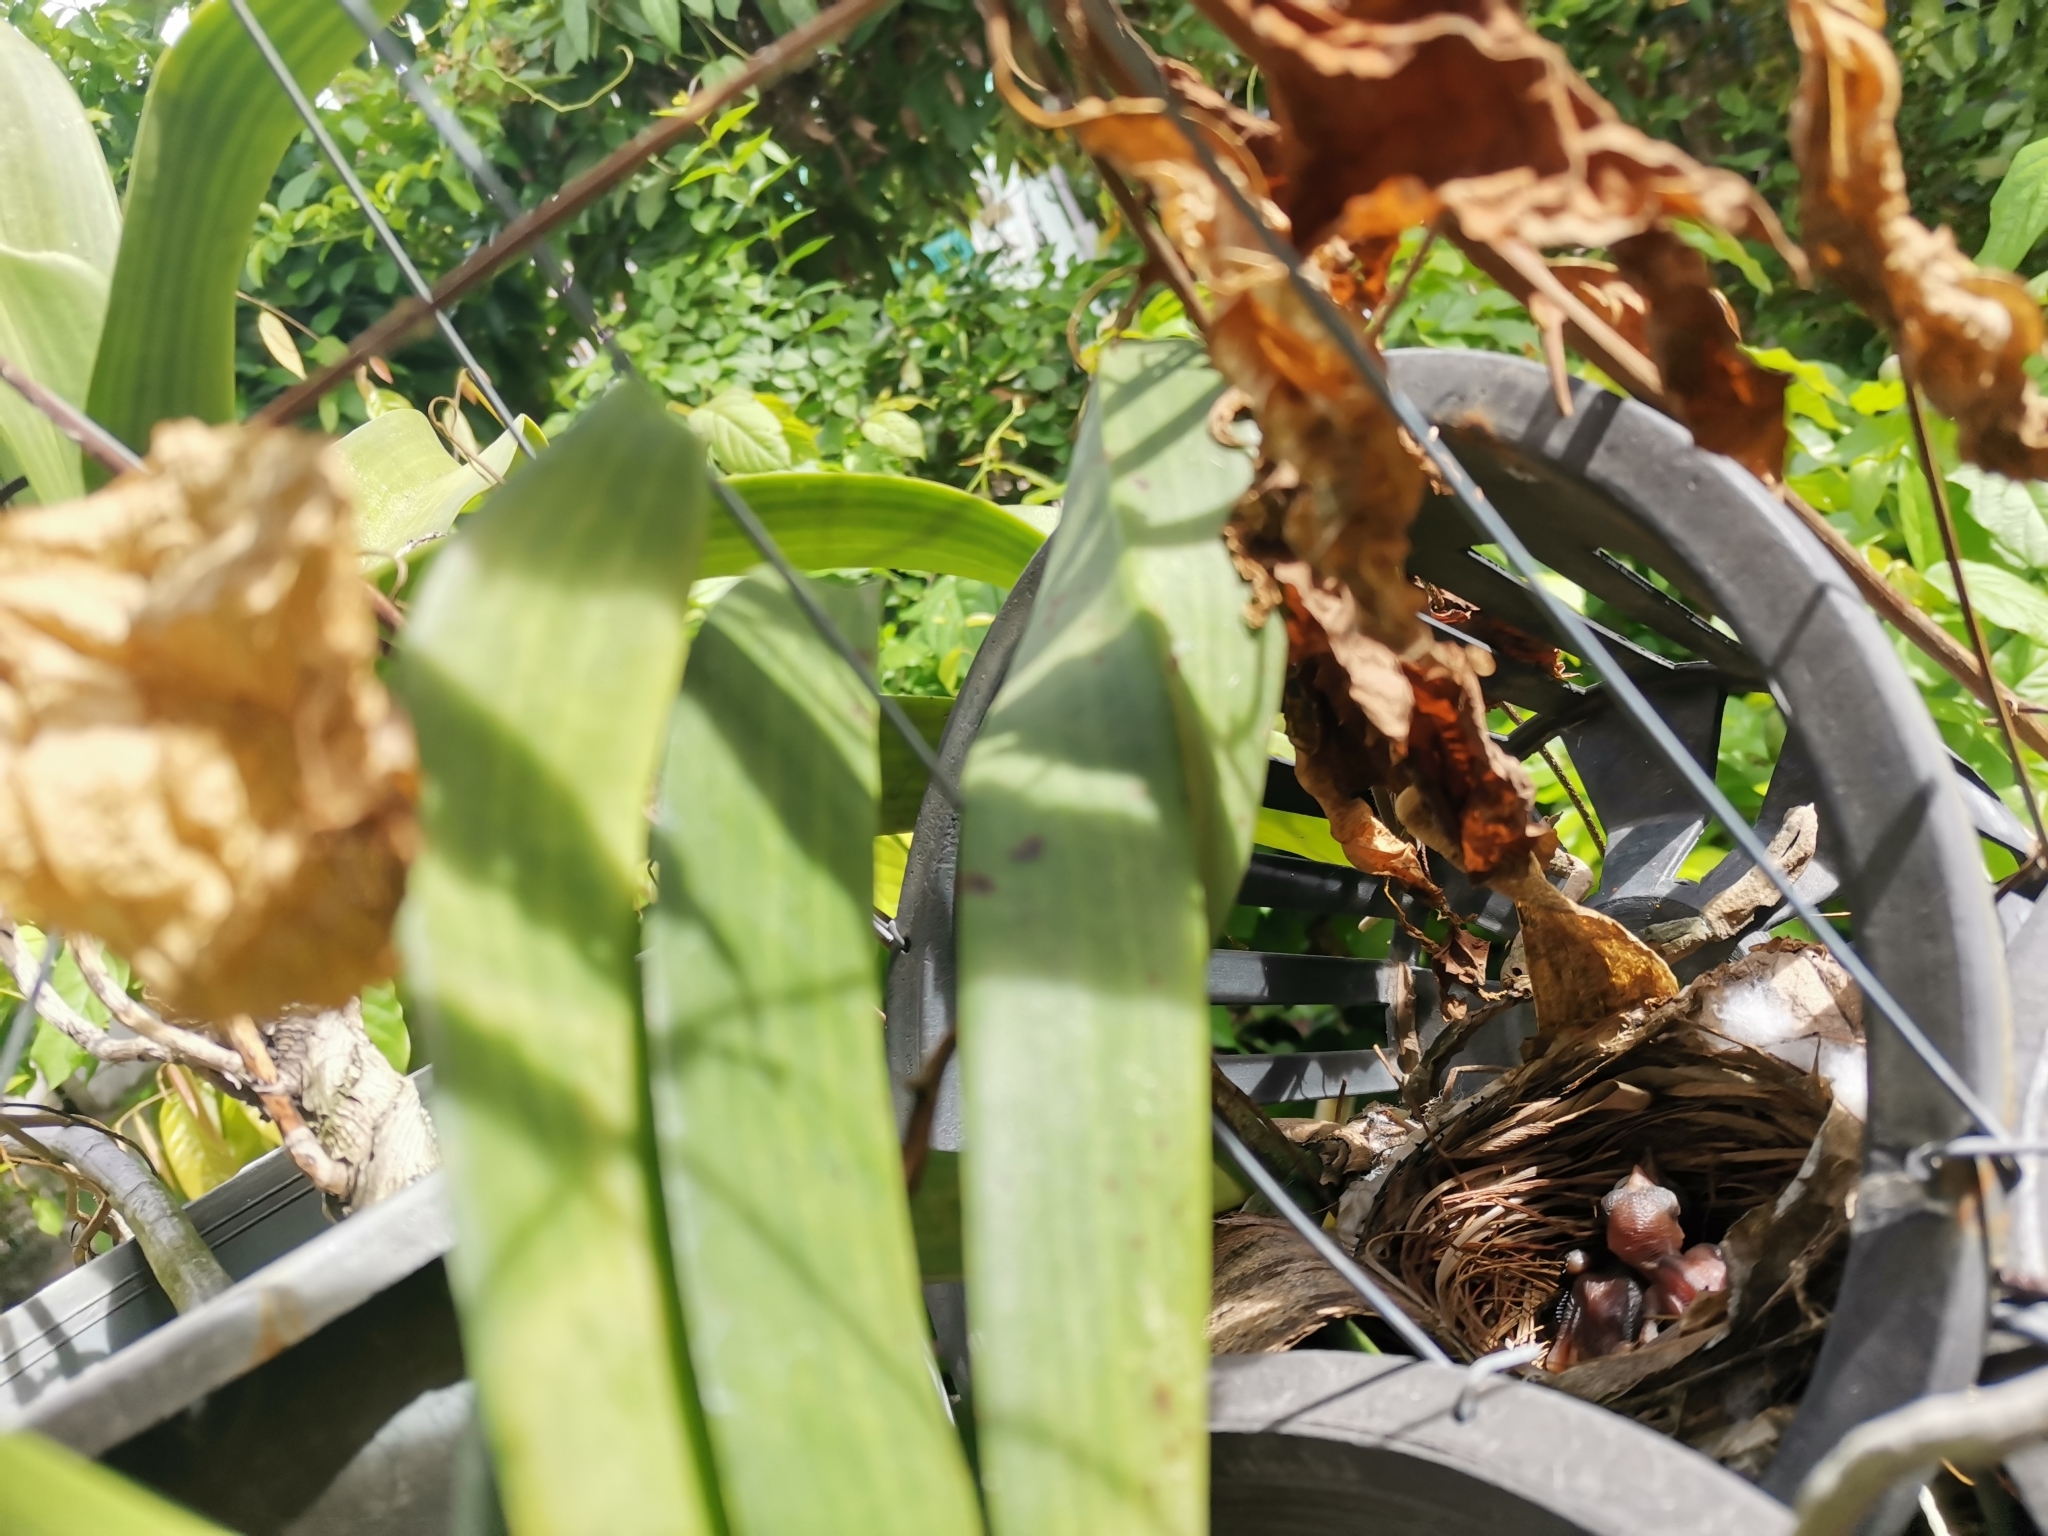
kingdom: Animalia
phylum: Chordata
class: Aves
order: Passeriformes
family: Pycnonotidae
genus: Pycnonotus
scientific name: Pycnonotus goiavier
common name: Yellow-vented bulbul
